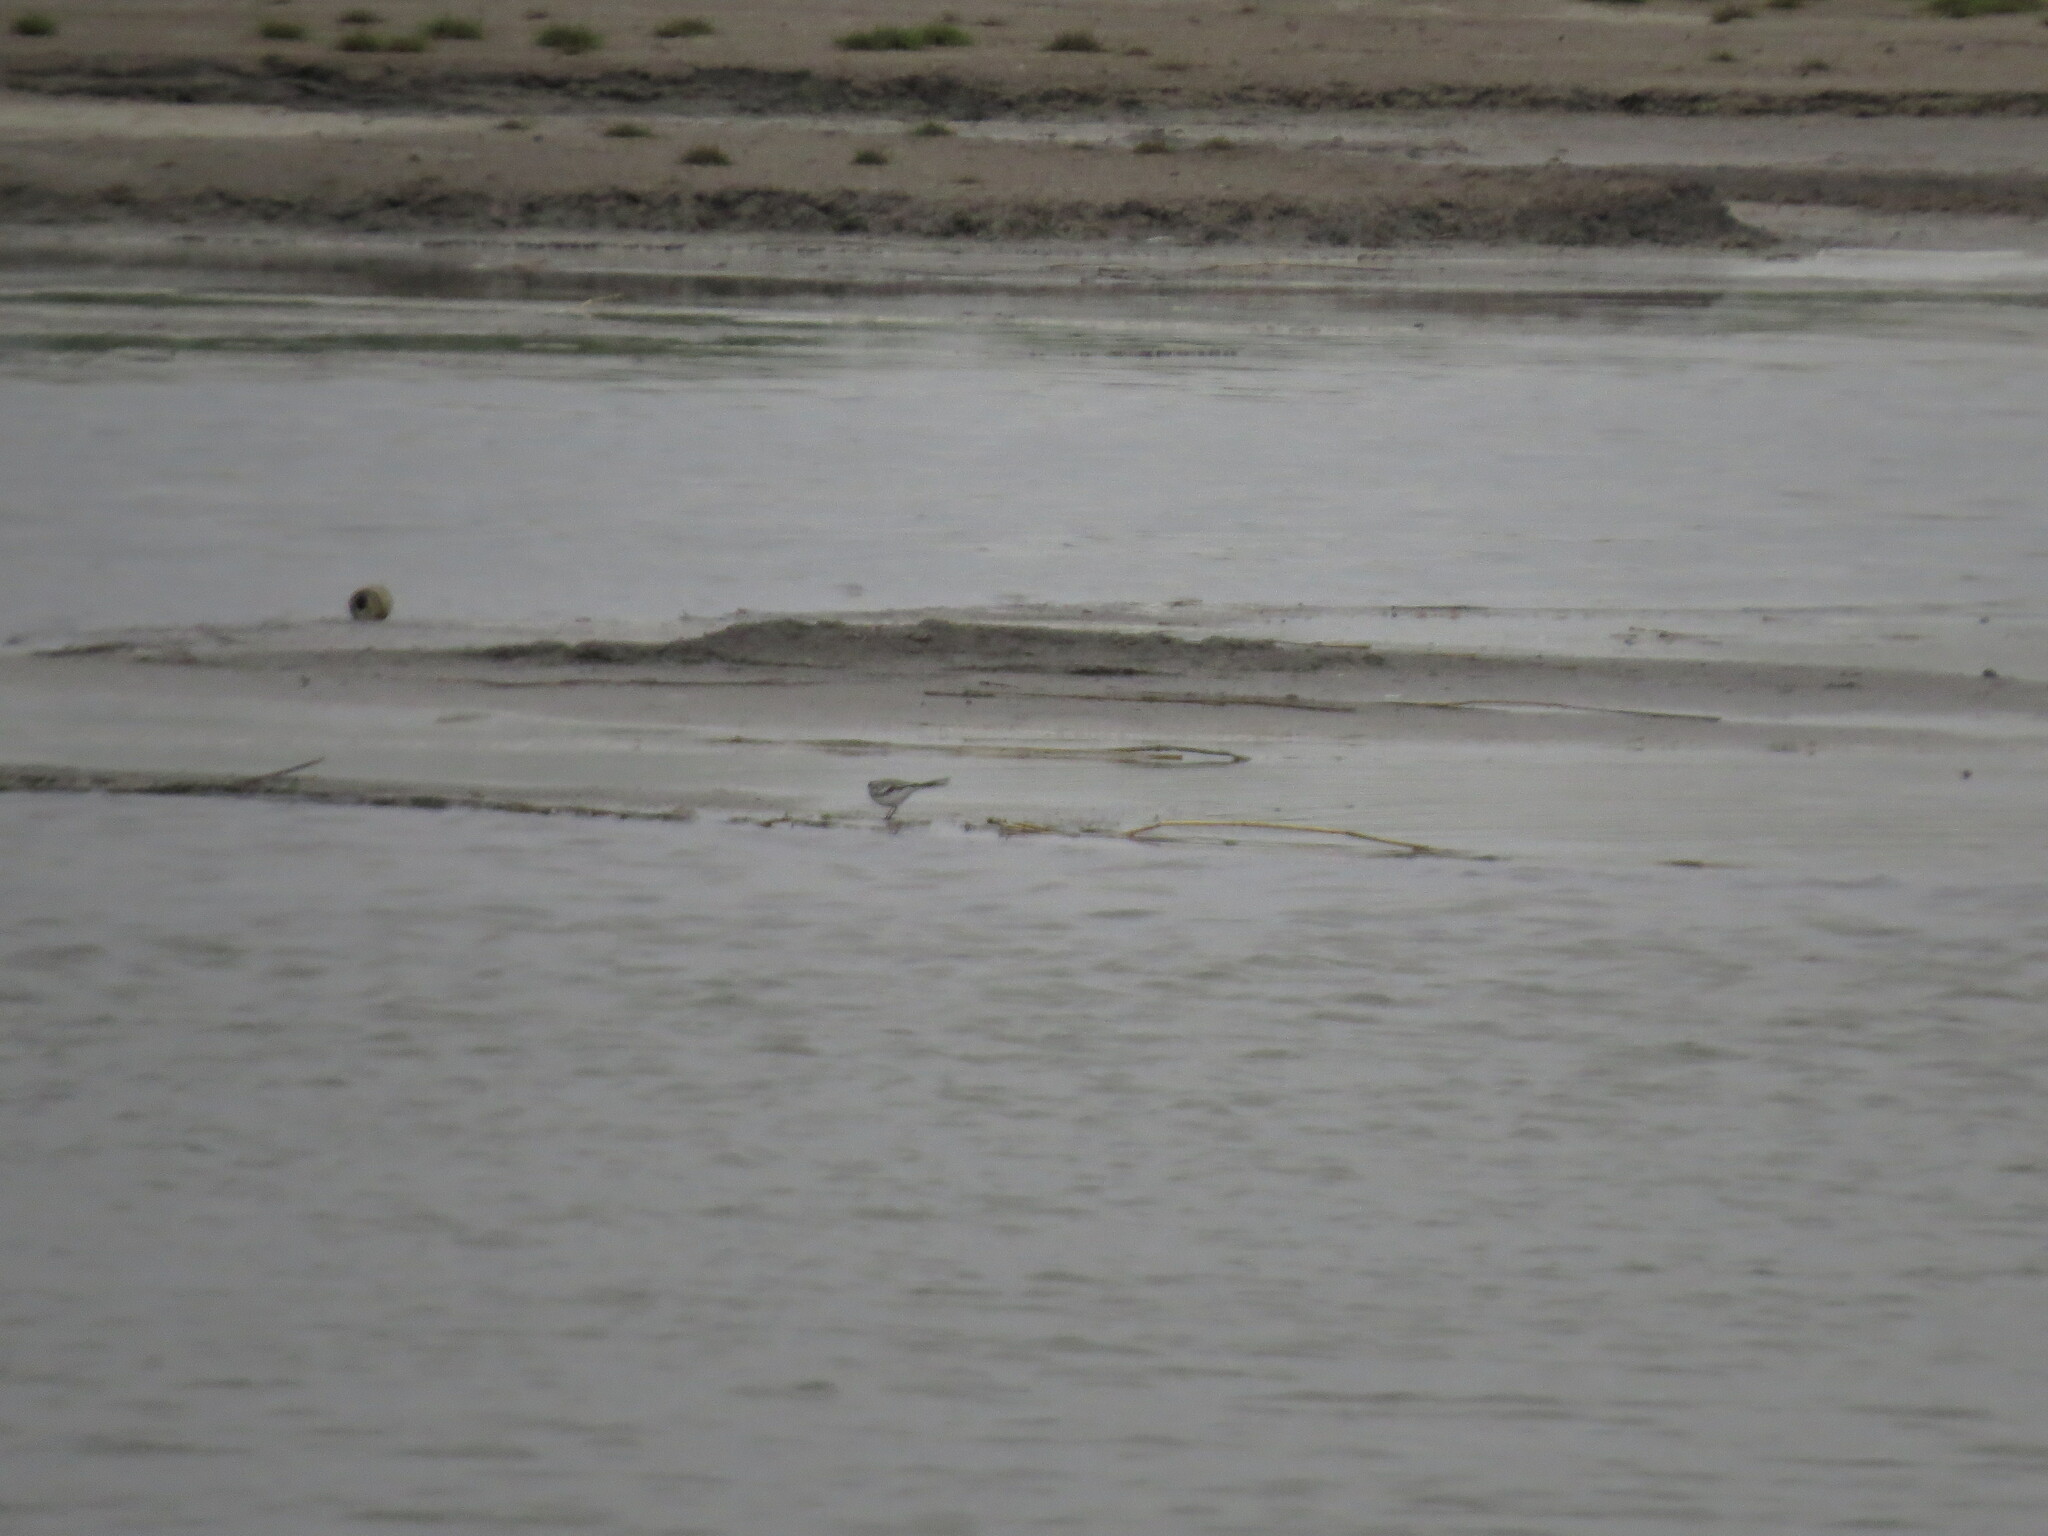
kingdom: Animalia
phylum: Chordata
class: Aves
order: Passeriformes
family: Motacillidae
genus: Motacilla
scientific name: Motacilla alba
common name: White wagtail
